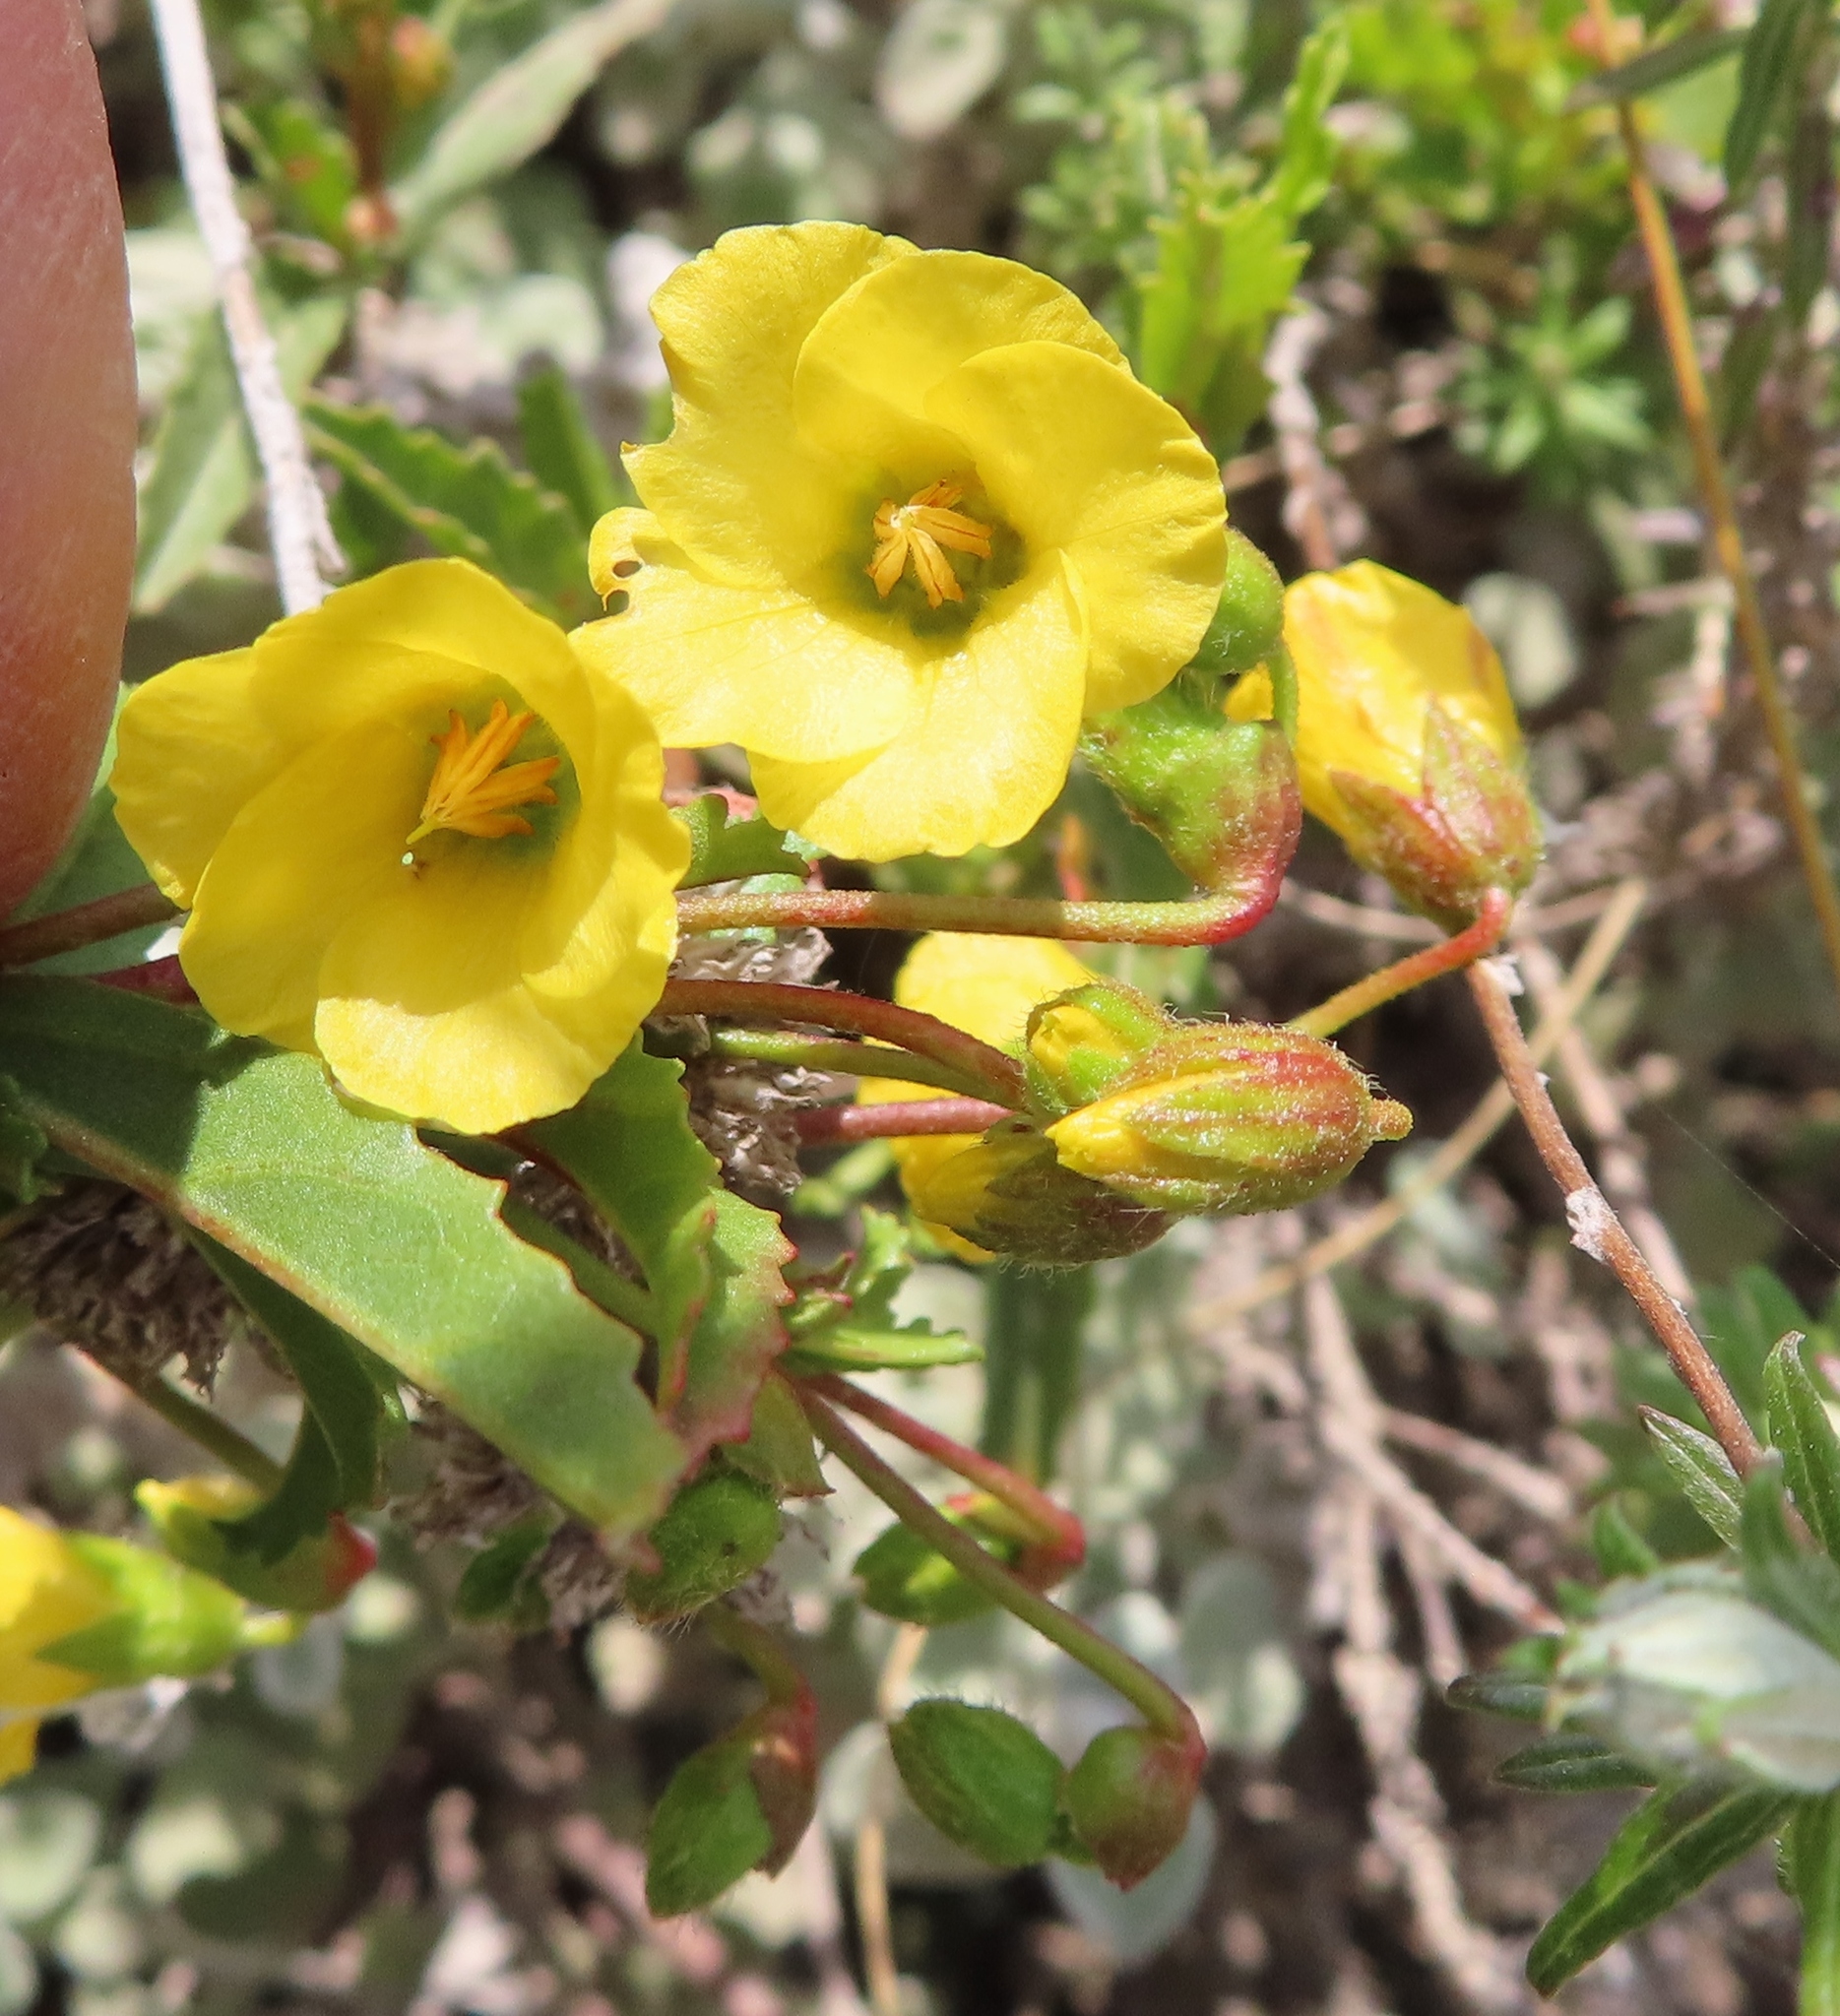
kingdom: Plantae
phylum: Tracheophyta
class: Magnoliopsida
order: Malvales
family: Malvaceae
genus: Hermannia
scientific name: Hermannia saccifera
